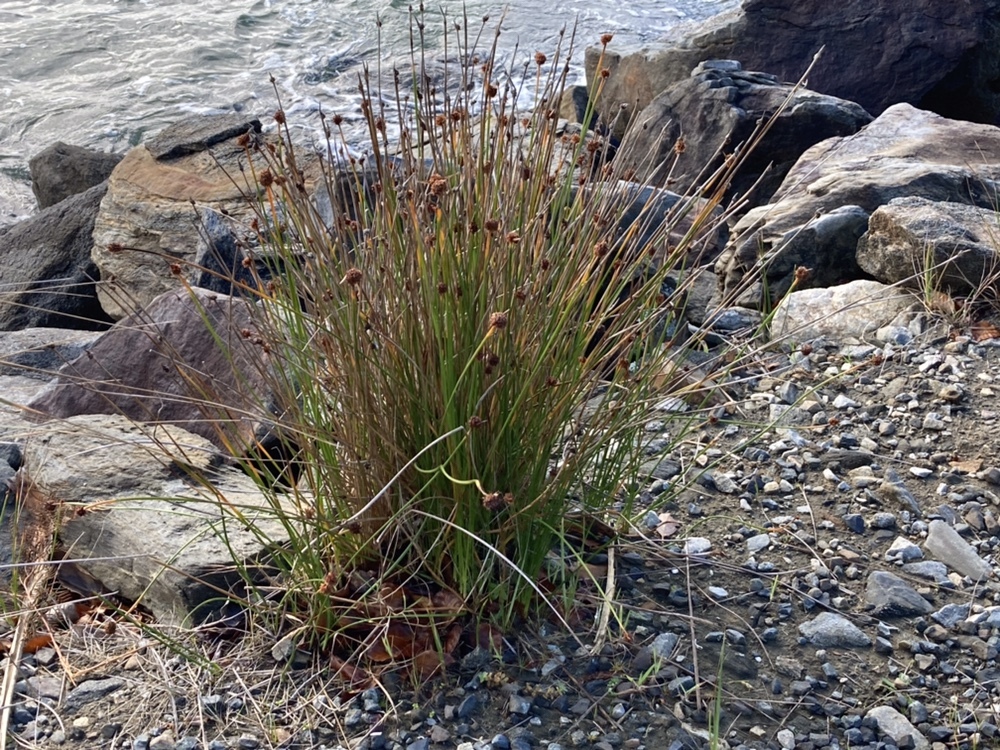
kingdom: Plantae
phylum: Tracheophyta
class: Liliopsida
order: Poales
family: Cyperaceae
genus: Ficinia
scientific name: Ficinia nodosa
